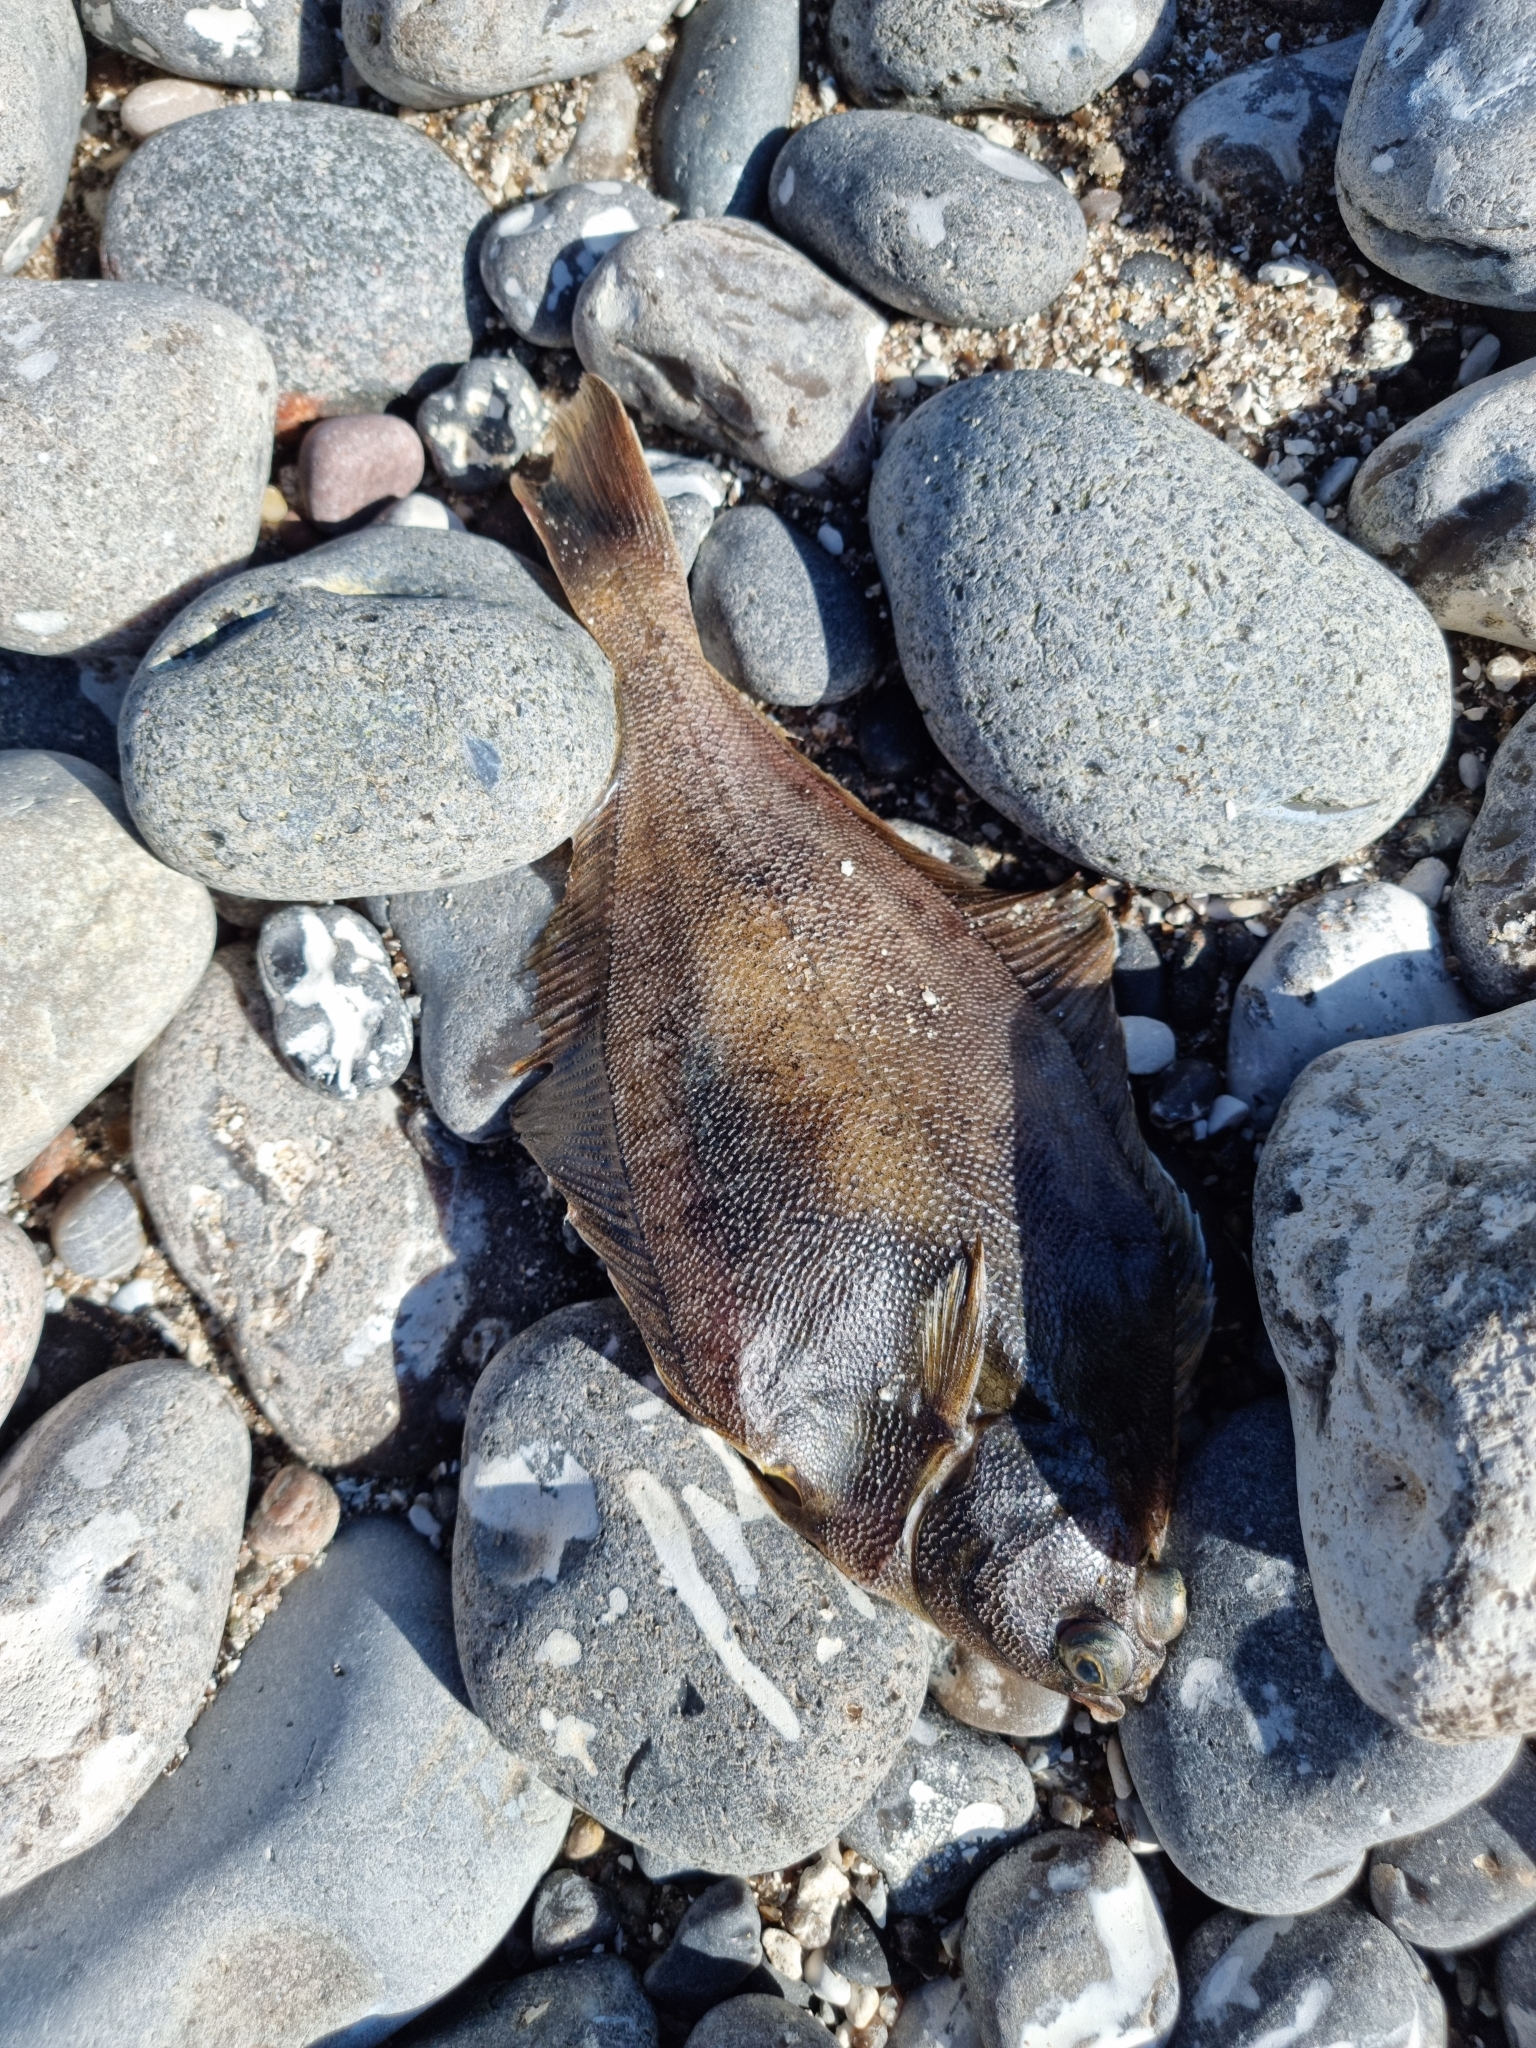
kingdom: Animalia
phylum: Chordata
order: Pleuronectiformes
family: Pleuronectidae
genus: Limanda
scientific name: Limanda limanda
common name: Dab
